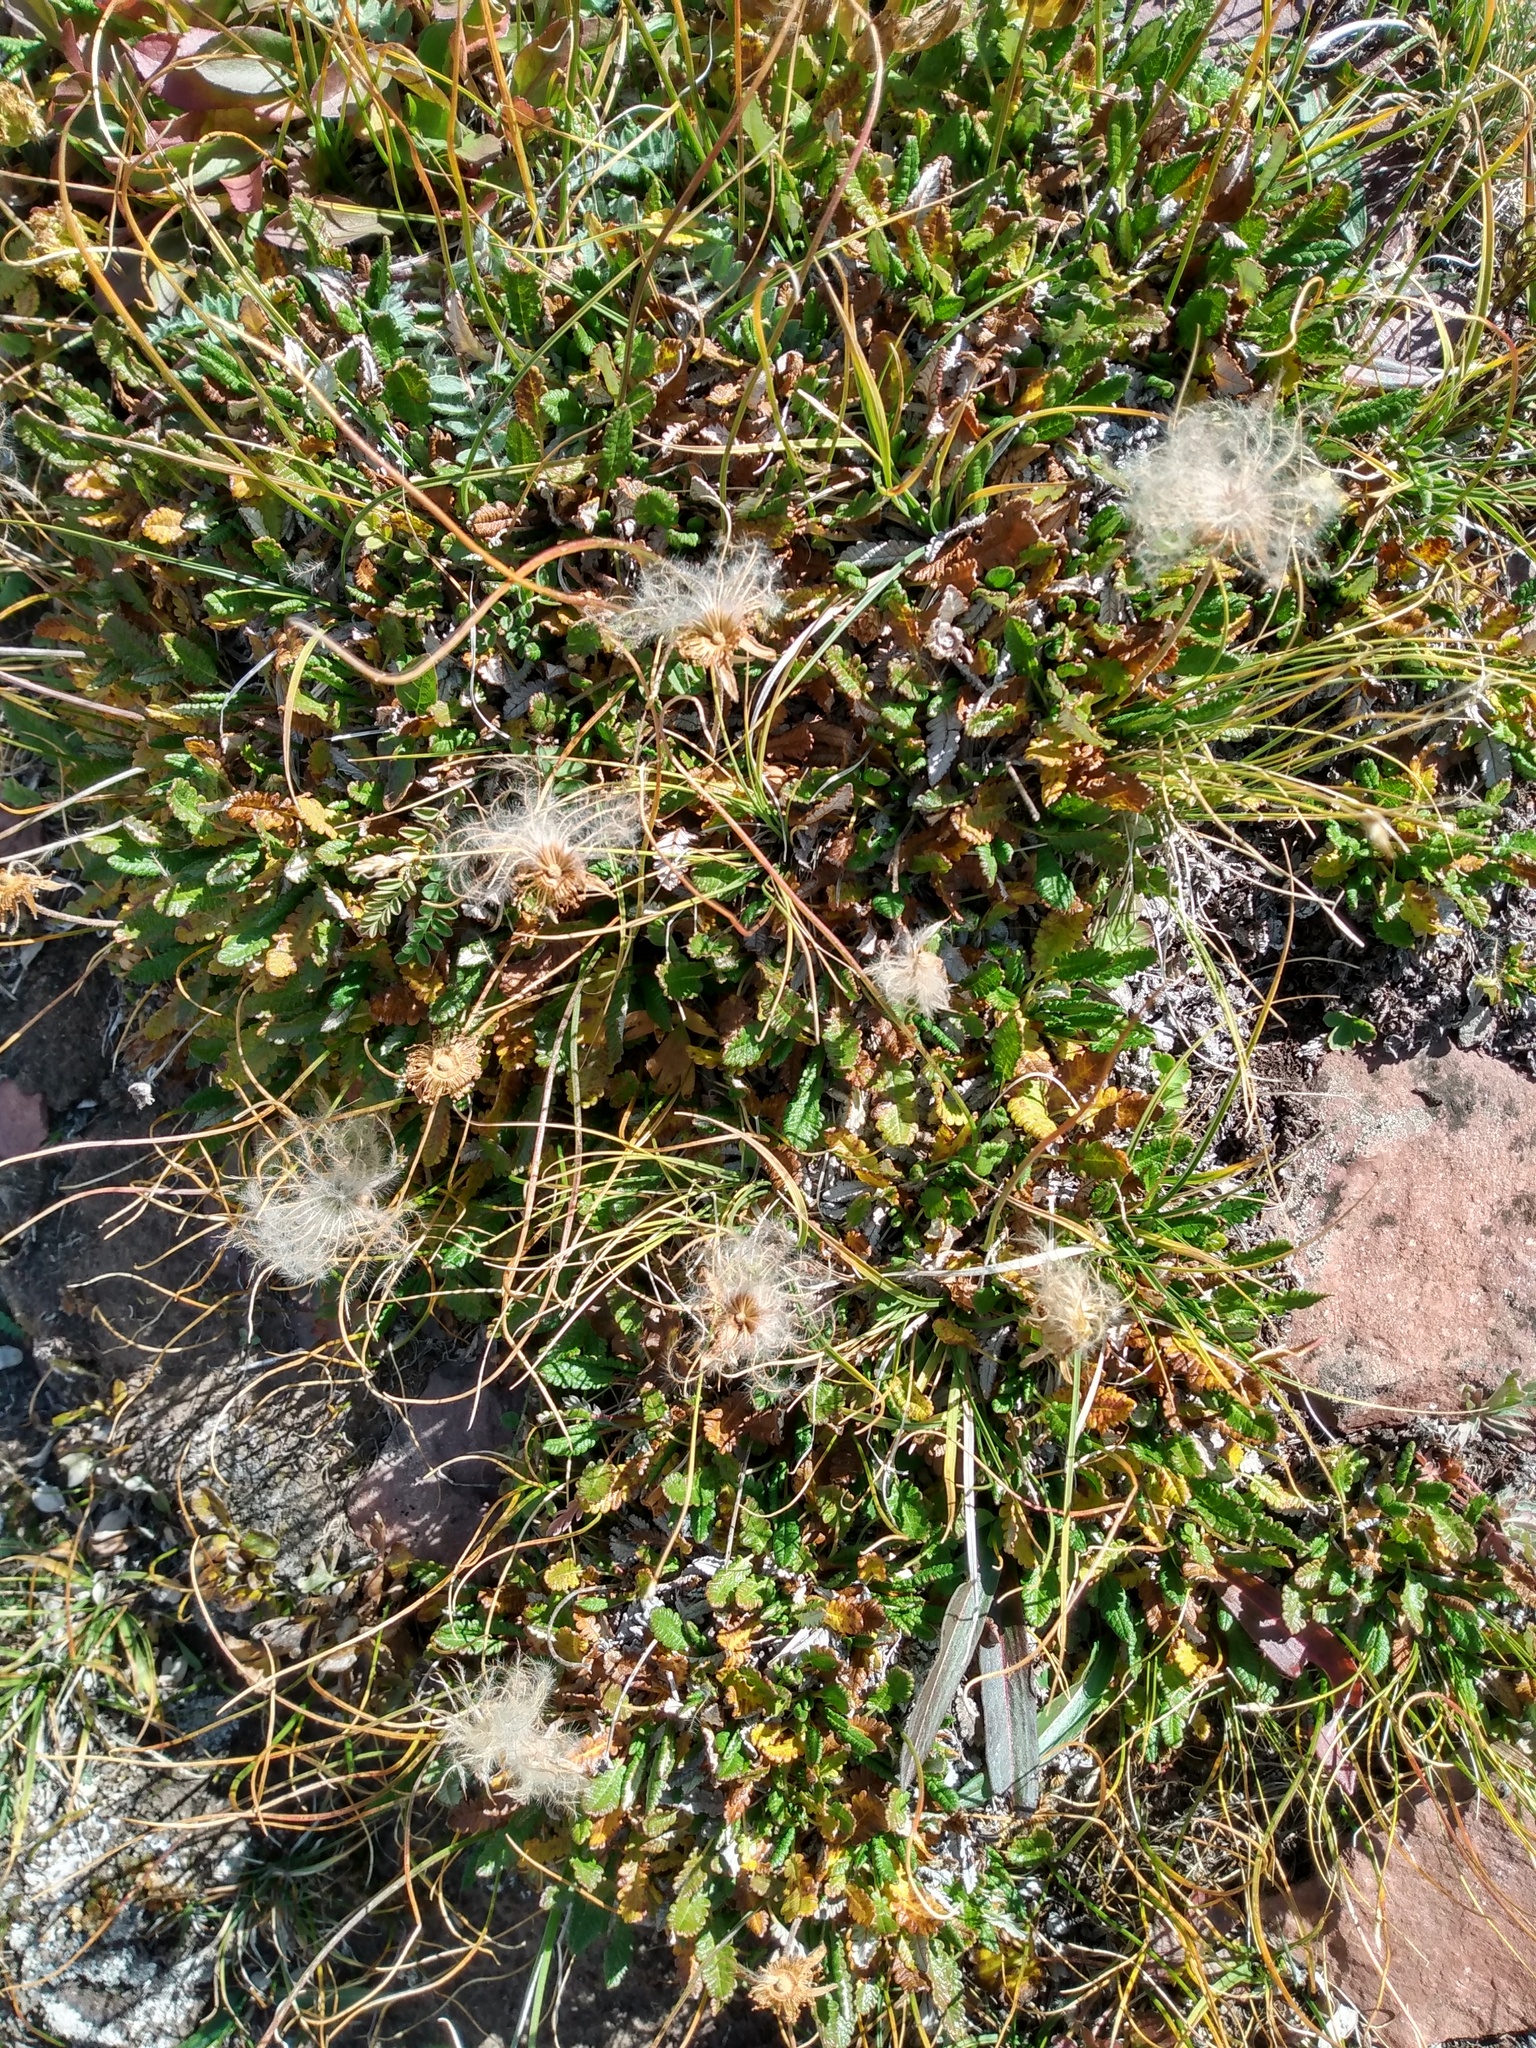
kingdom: Plantae
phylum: Tracheophyta
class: Magnoliopsida
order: Rosales
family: Rosaceae
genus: Dryas
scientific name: Dryas octopetala
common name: Eight-petal mountain-avens
